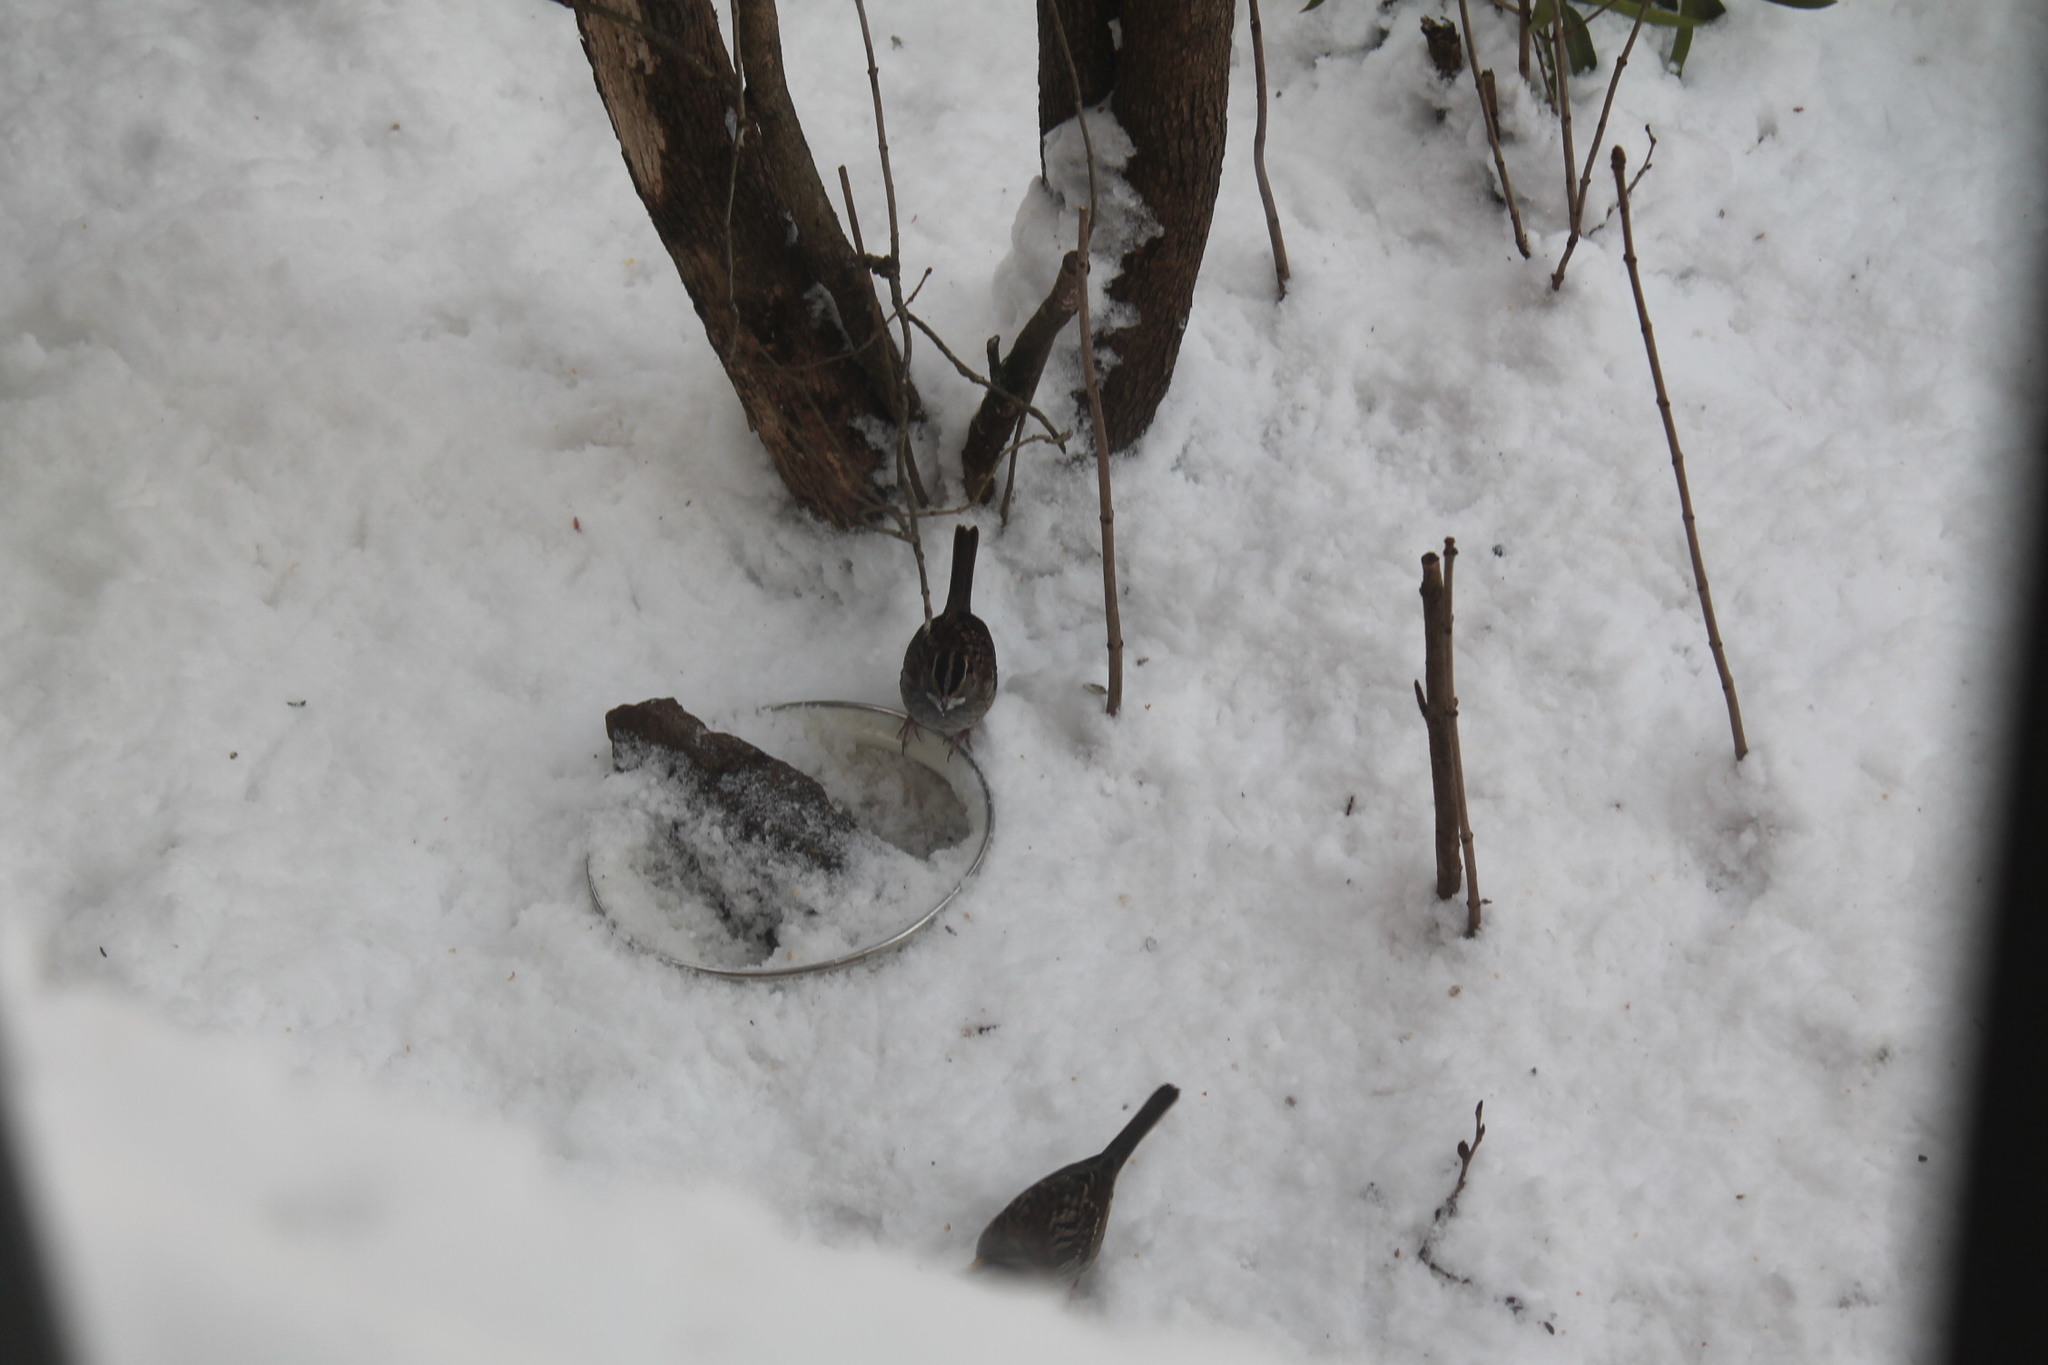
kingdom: Animalia
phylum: Chordata
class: Aves
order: Passeriformes
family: Passerellidae
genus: Zonotrichia
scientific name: Zonotrichia albicollis
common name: White-throated sparrow
